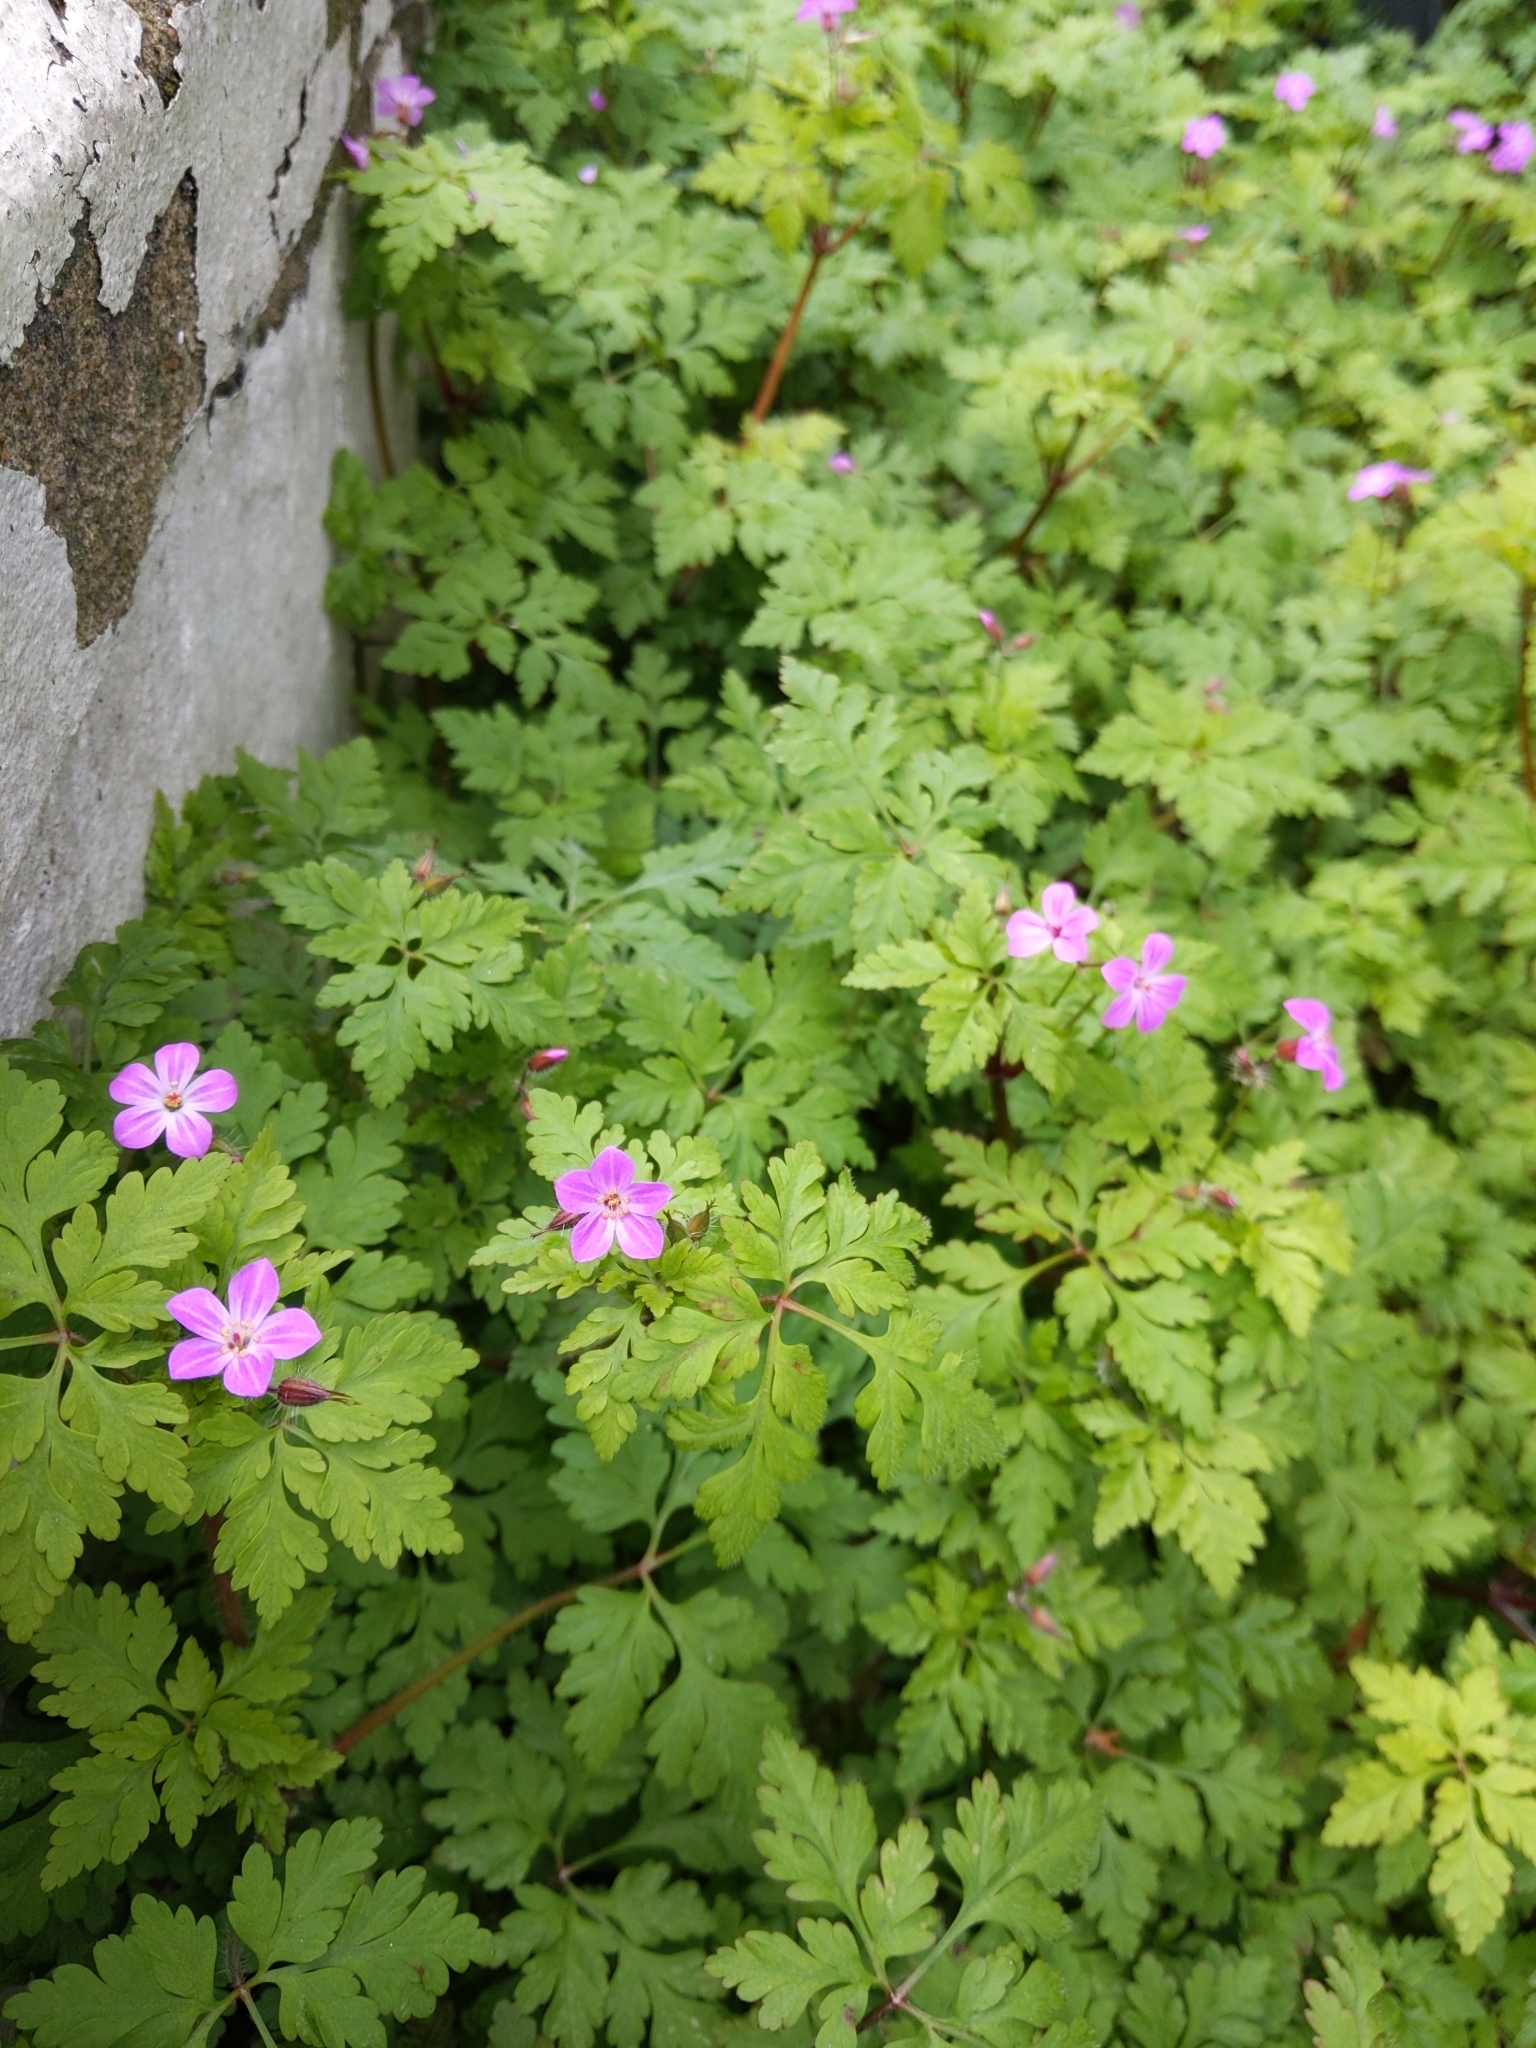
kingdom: Plantae
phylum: Tracheophyta
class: Magnoliopsida
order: Geraniales
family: Geraniaceae
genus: Geranium
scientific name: Geranium robertianum
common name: Herb-robert
